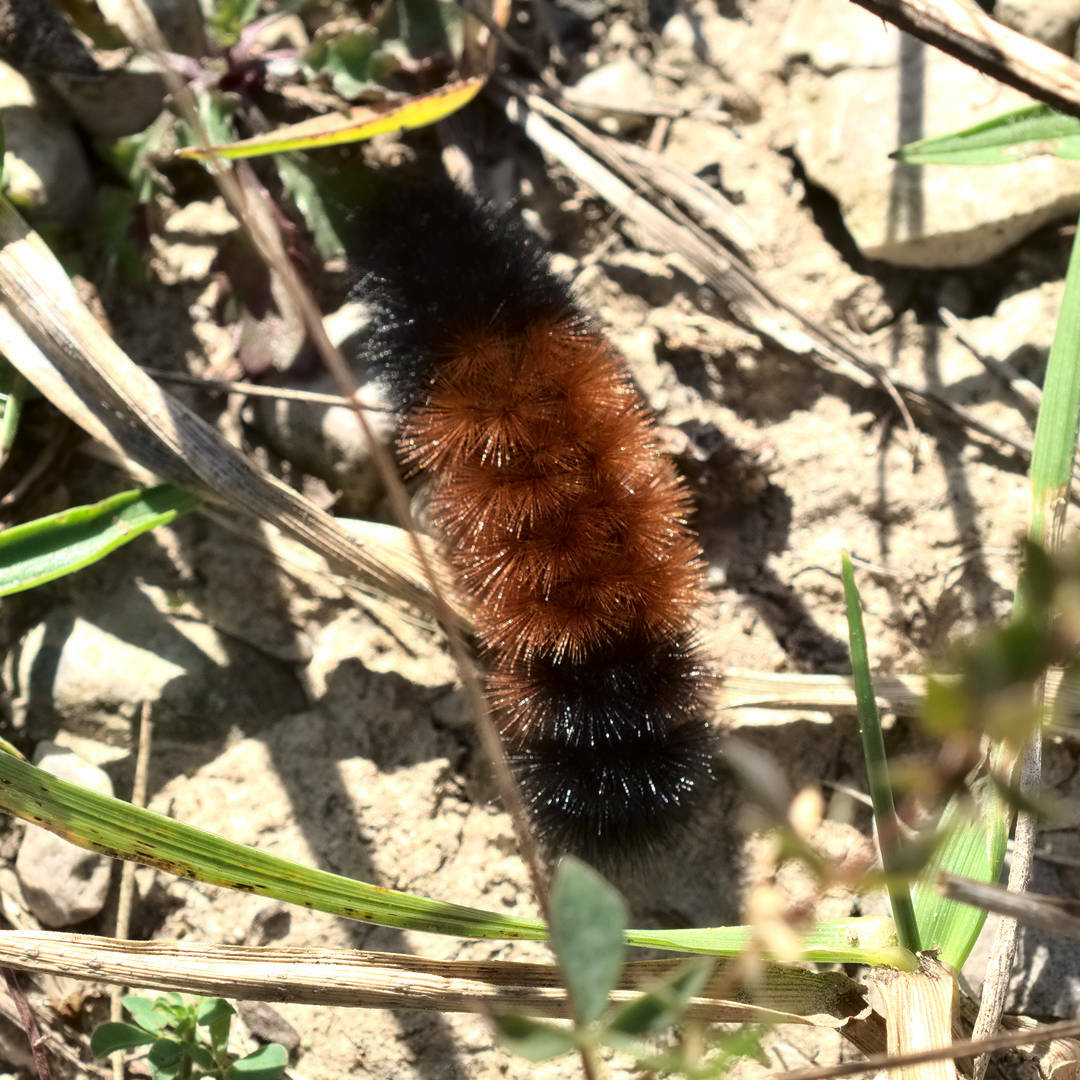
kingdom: Animalia
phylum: Arthropoda
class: Insecta
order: Lepidoptera
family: Erebidae
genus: Pyrrharctia
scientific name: Pyrrharctia isabella
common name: Isabella tiger moth
